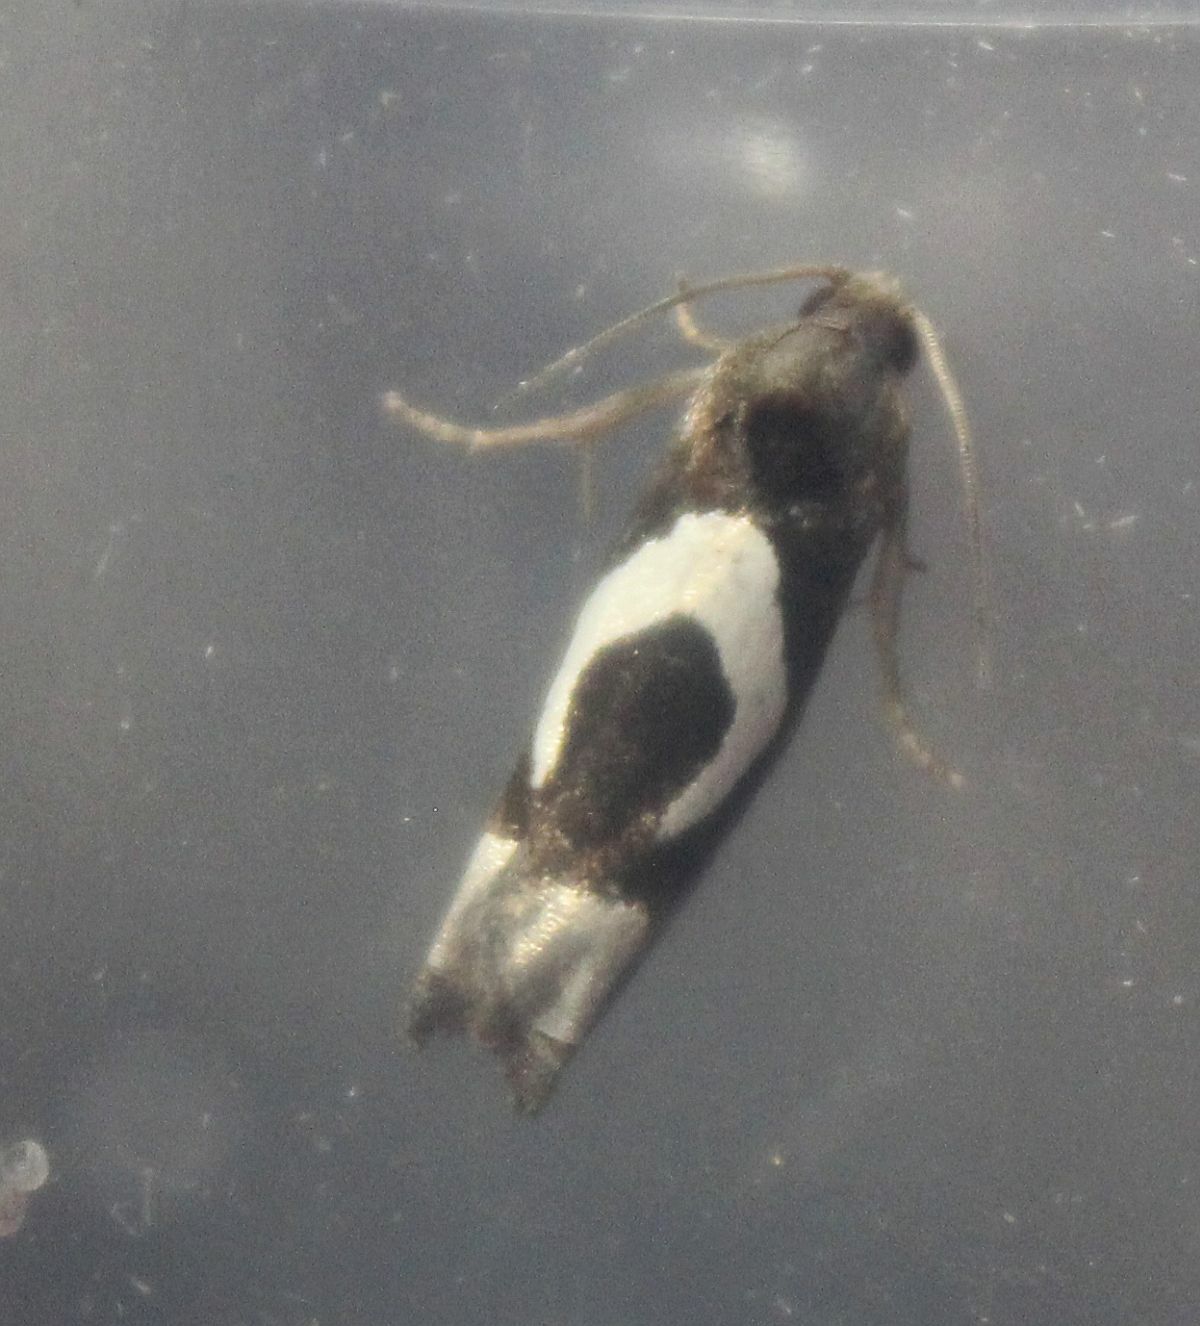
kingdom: Animalia
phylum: Arthropoda
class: Insecta
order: Lepidoptera
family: Tortricidae
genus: Epiblema
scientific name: Epiblema foenella
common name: White-foot bell
